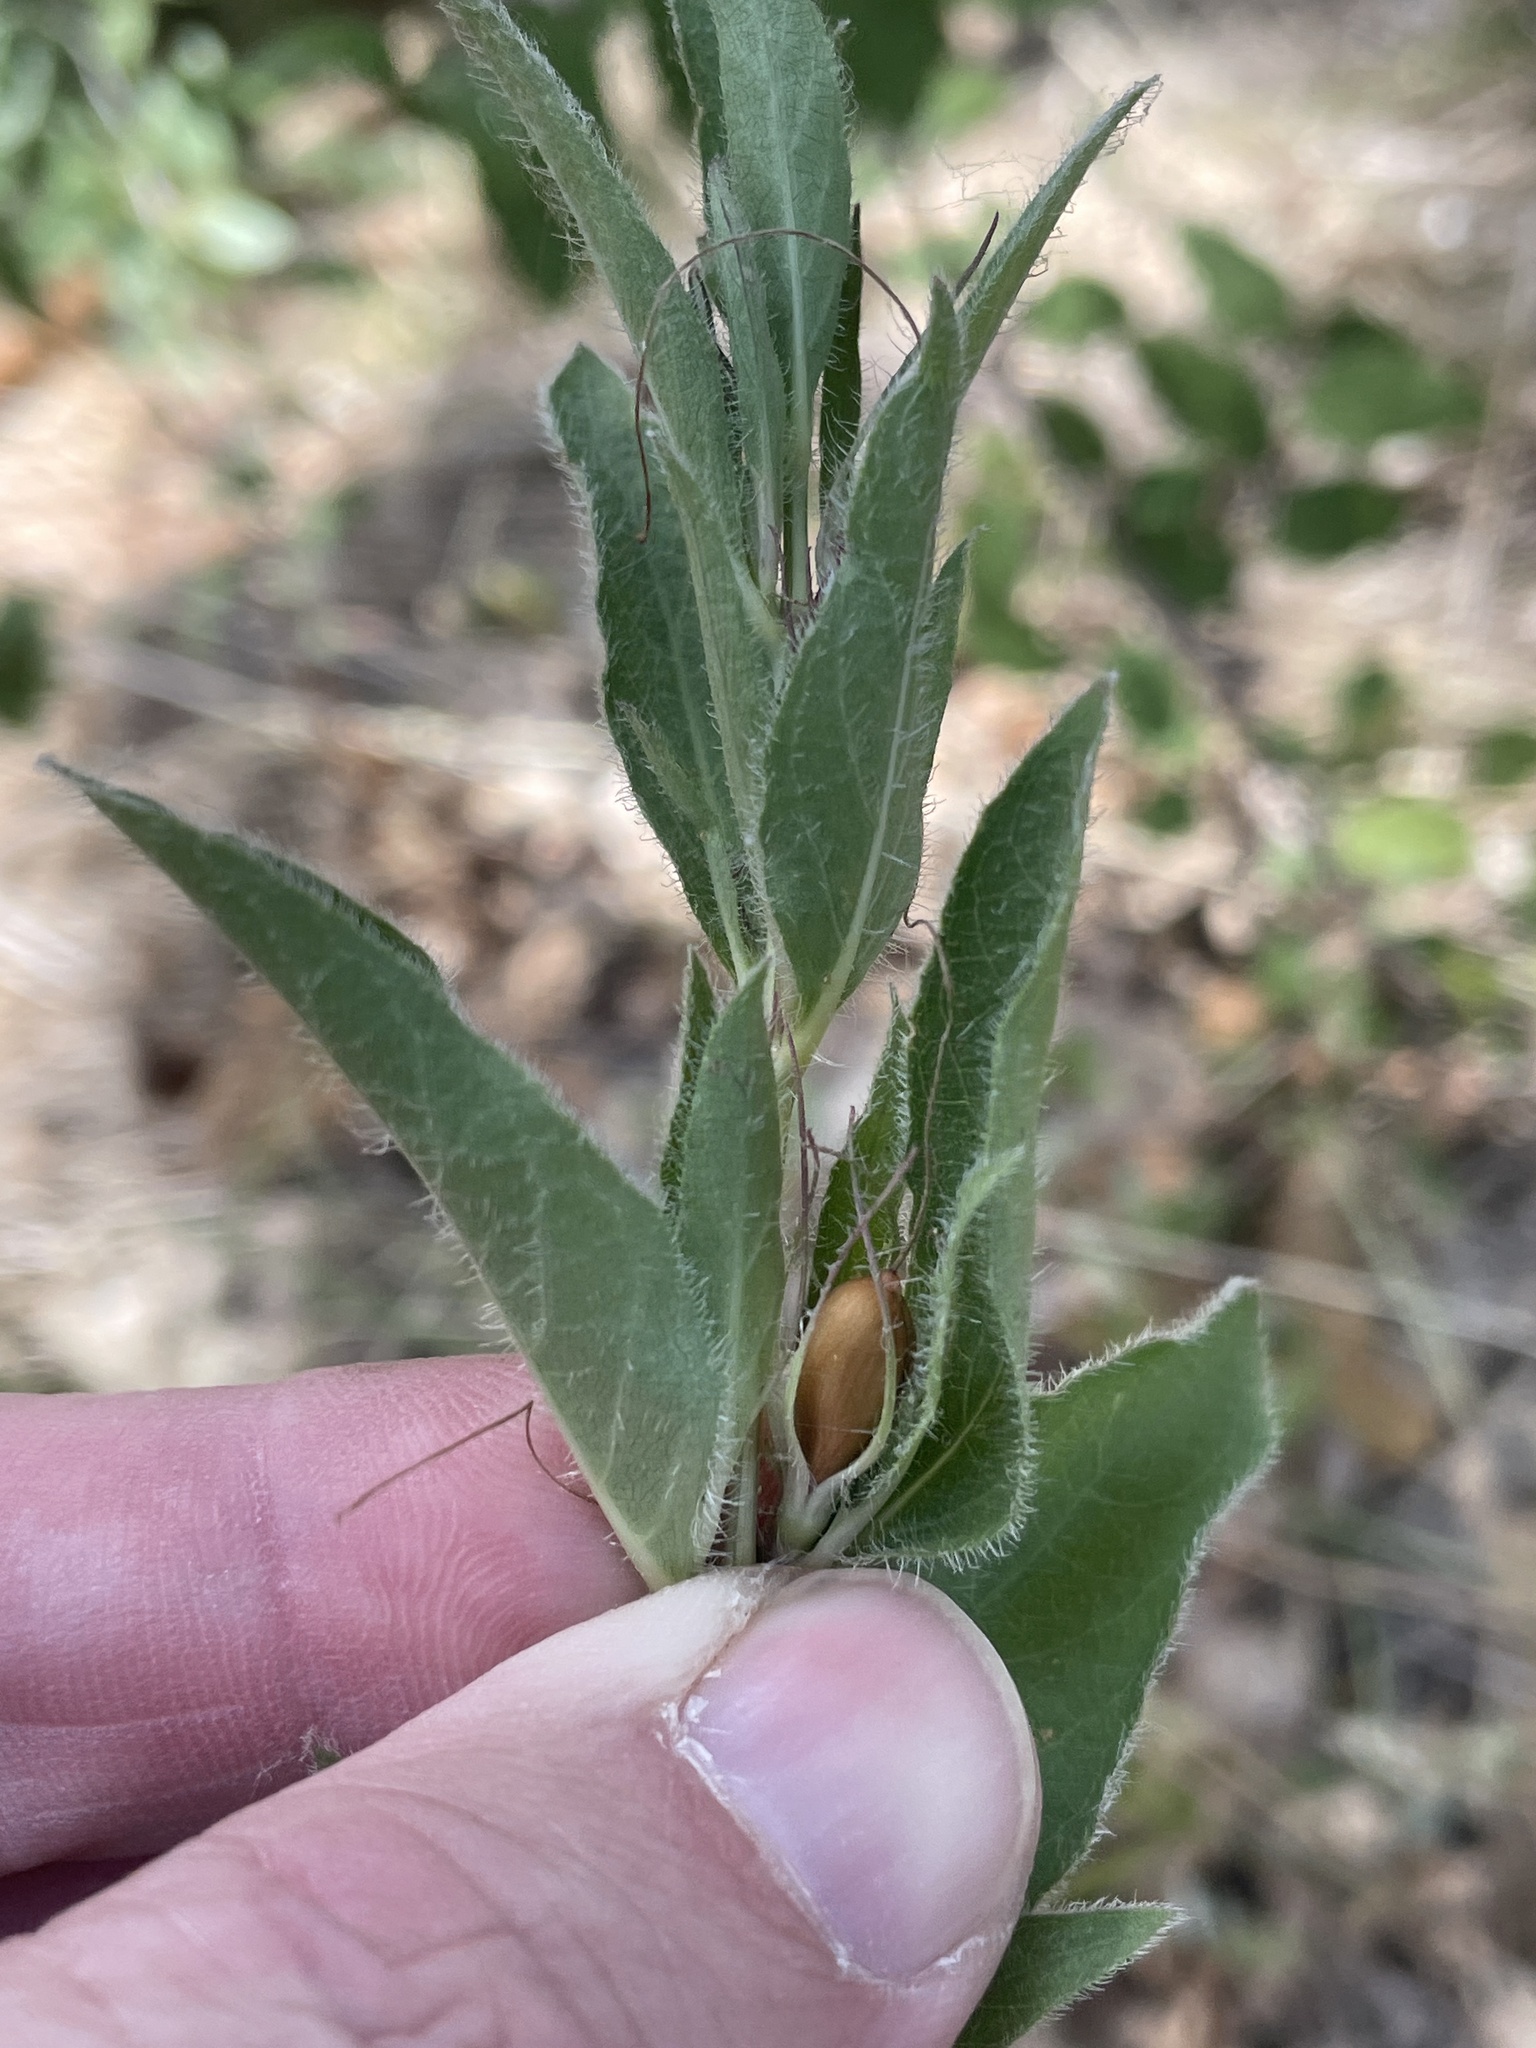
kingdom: Plantae
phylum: Tracheophyta
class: Magnoliopsida
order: Lamiales
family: Acanthaceae
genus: Ruellia
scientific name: Ruellia humilis
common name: Fringe-leaf ruellia
